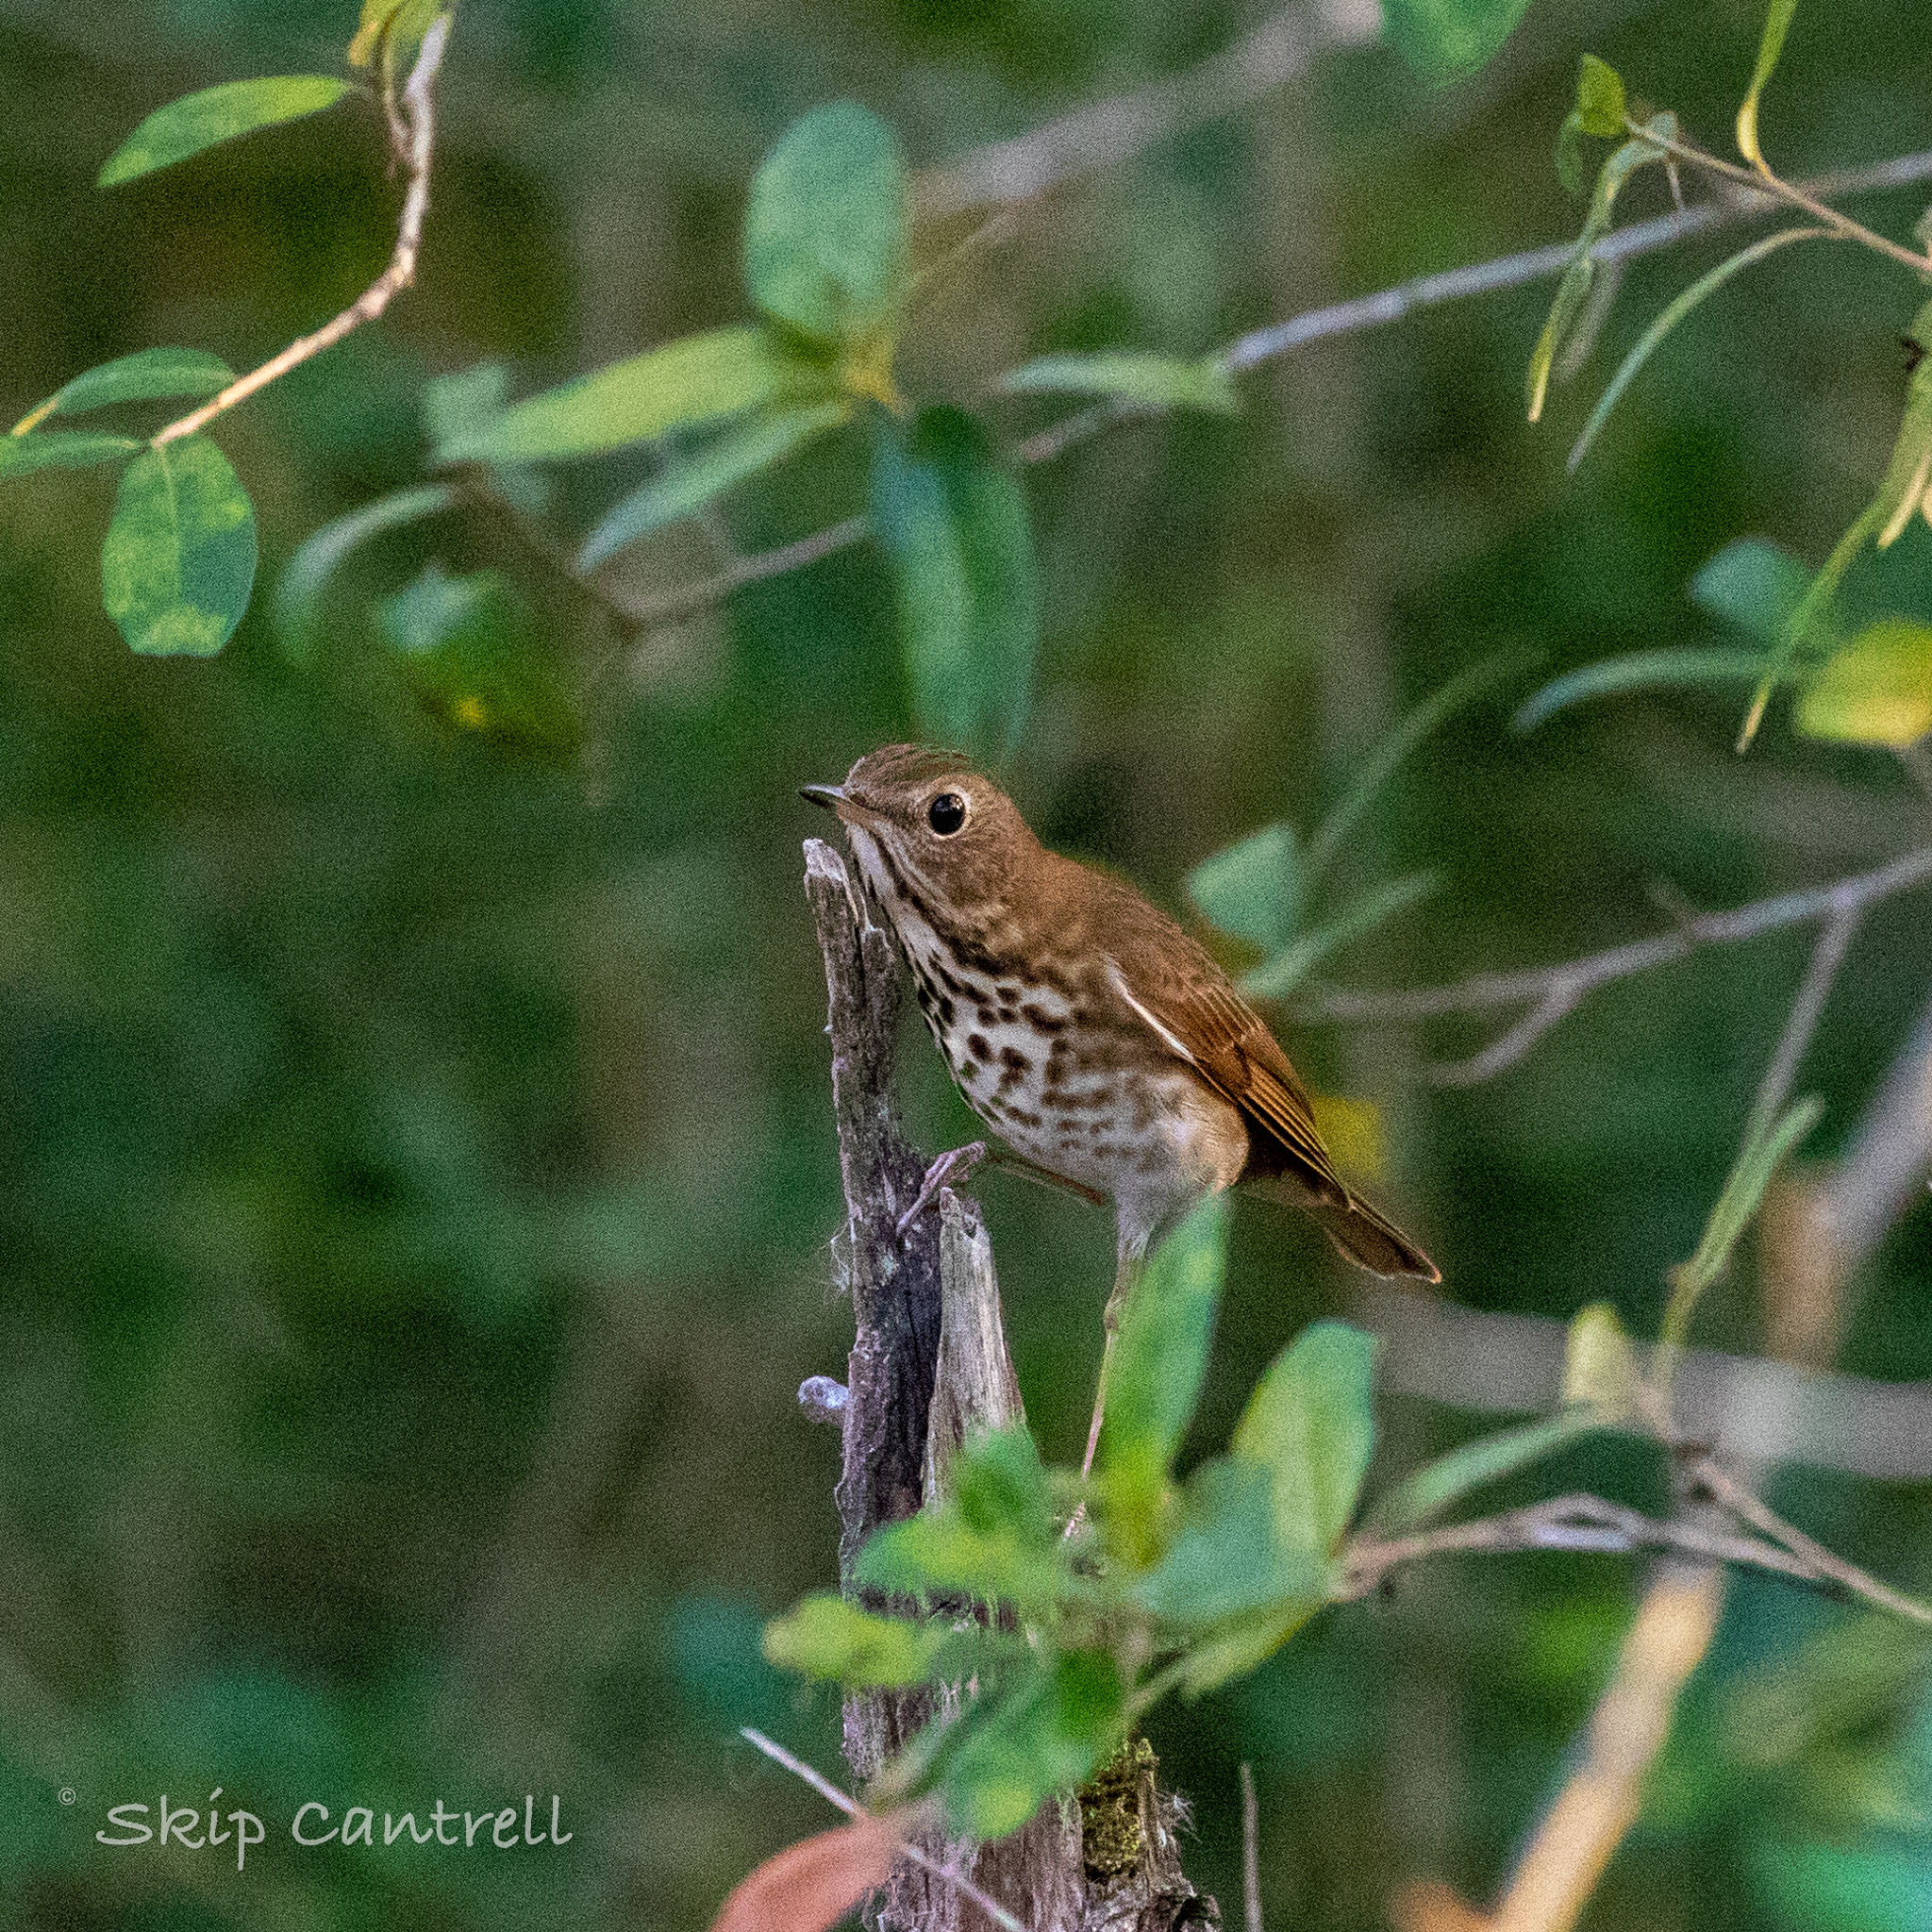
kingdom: Animalia
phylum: Chordata
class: Aves
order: Passeriformes
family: Turdidae
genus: Catharus
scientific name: Catharus guttatus
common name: Hermit thrush
